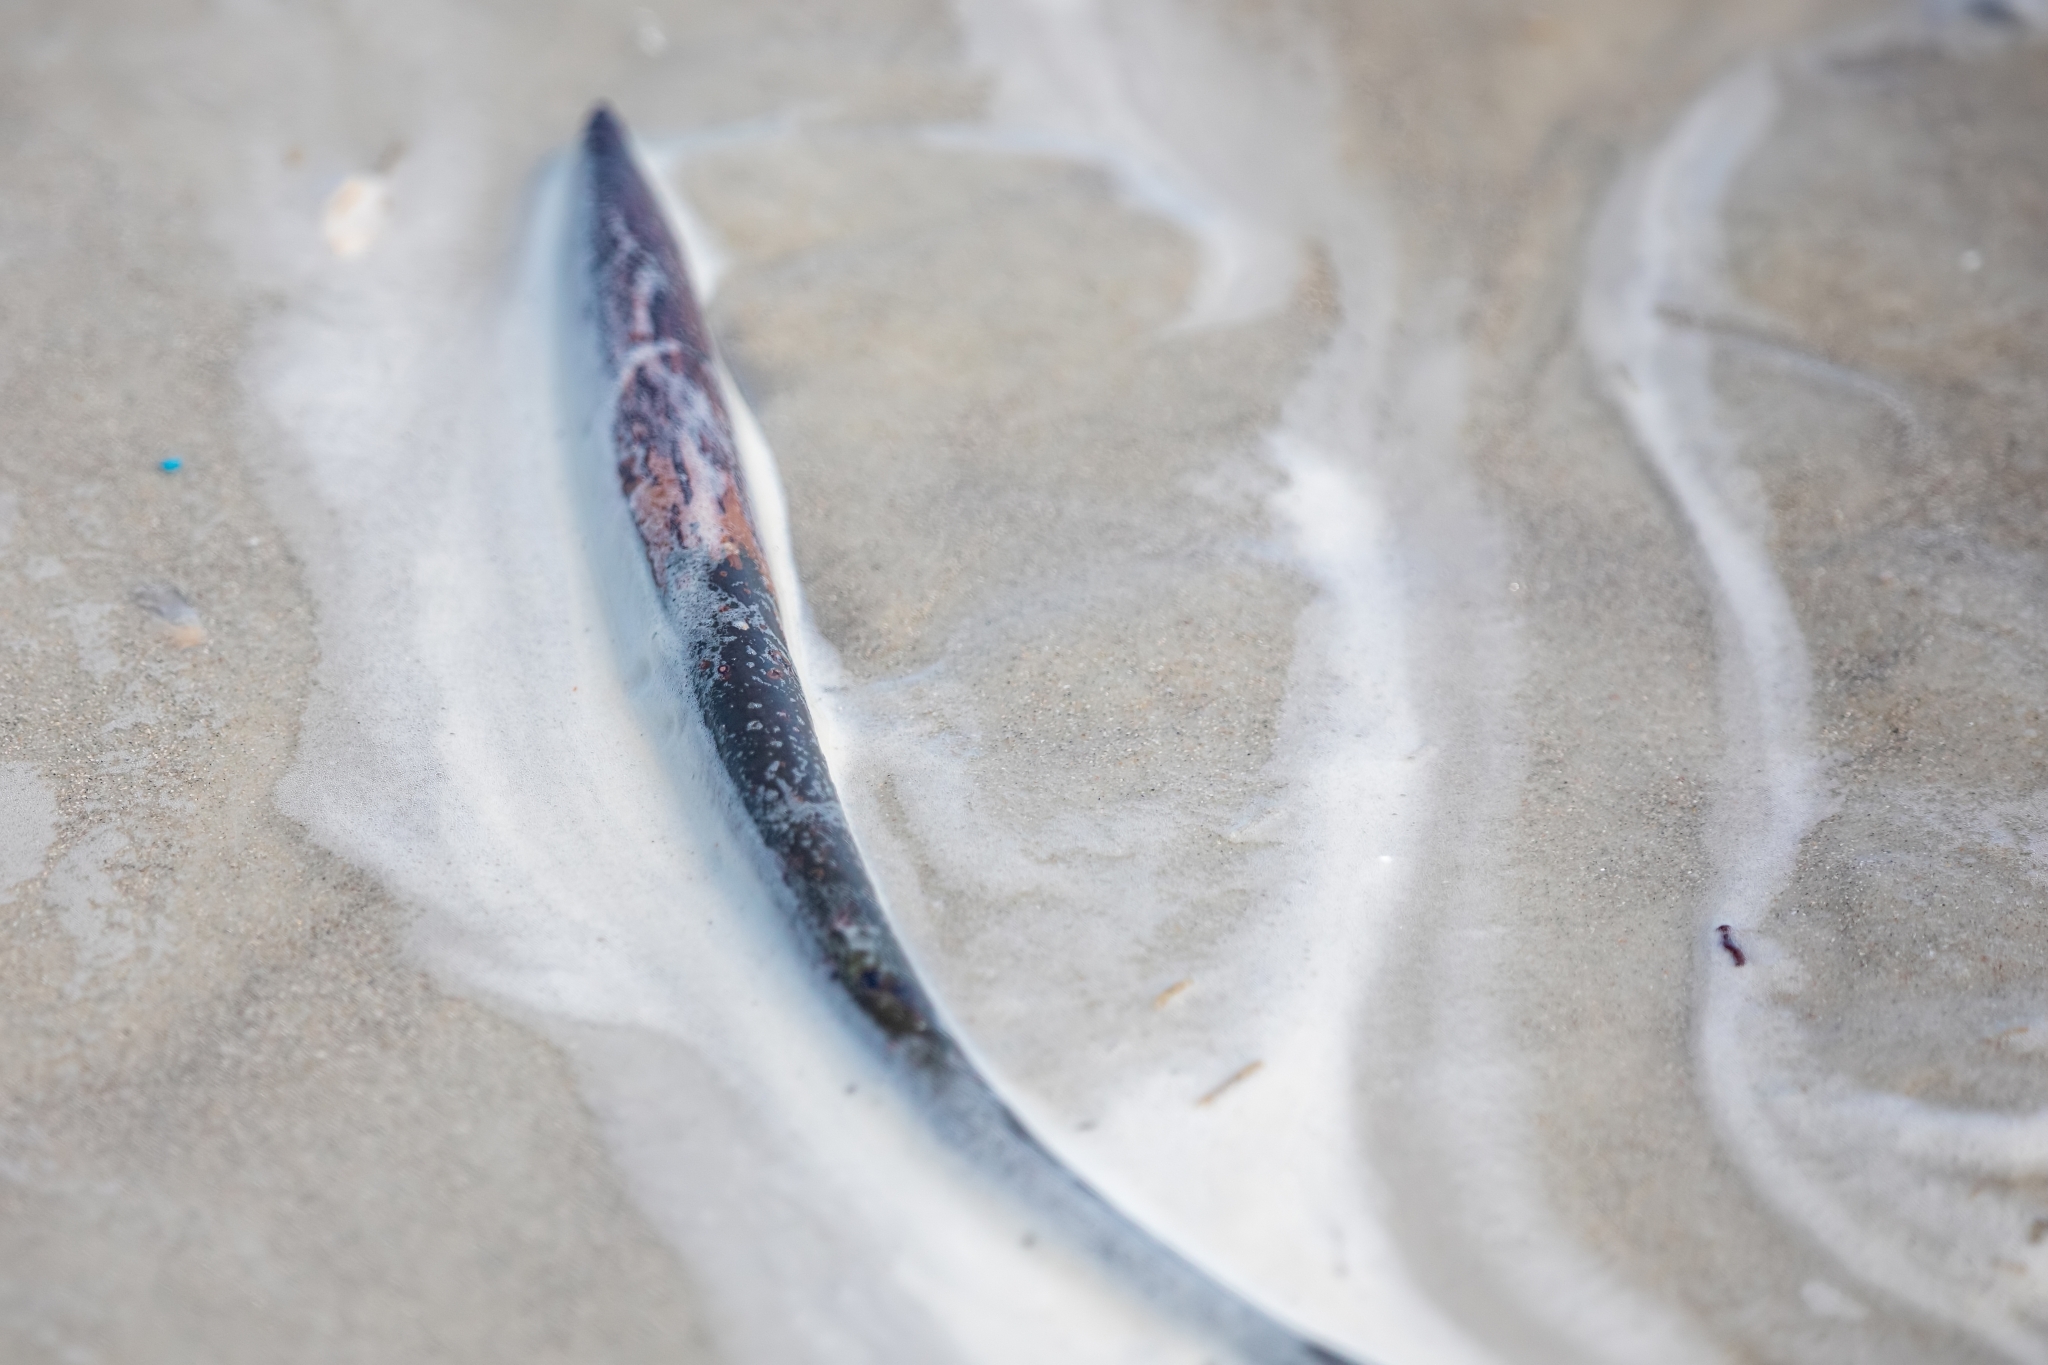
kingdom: Plantae
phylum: Tracheophyta
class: Magnoliopsida
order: Malpighiales
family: Rhizophoraceae
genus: Rhizophora
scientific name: Rhizophora mangle
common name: Red mangrove
